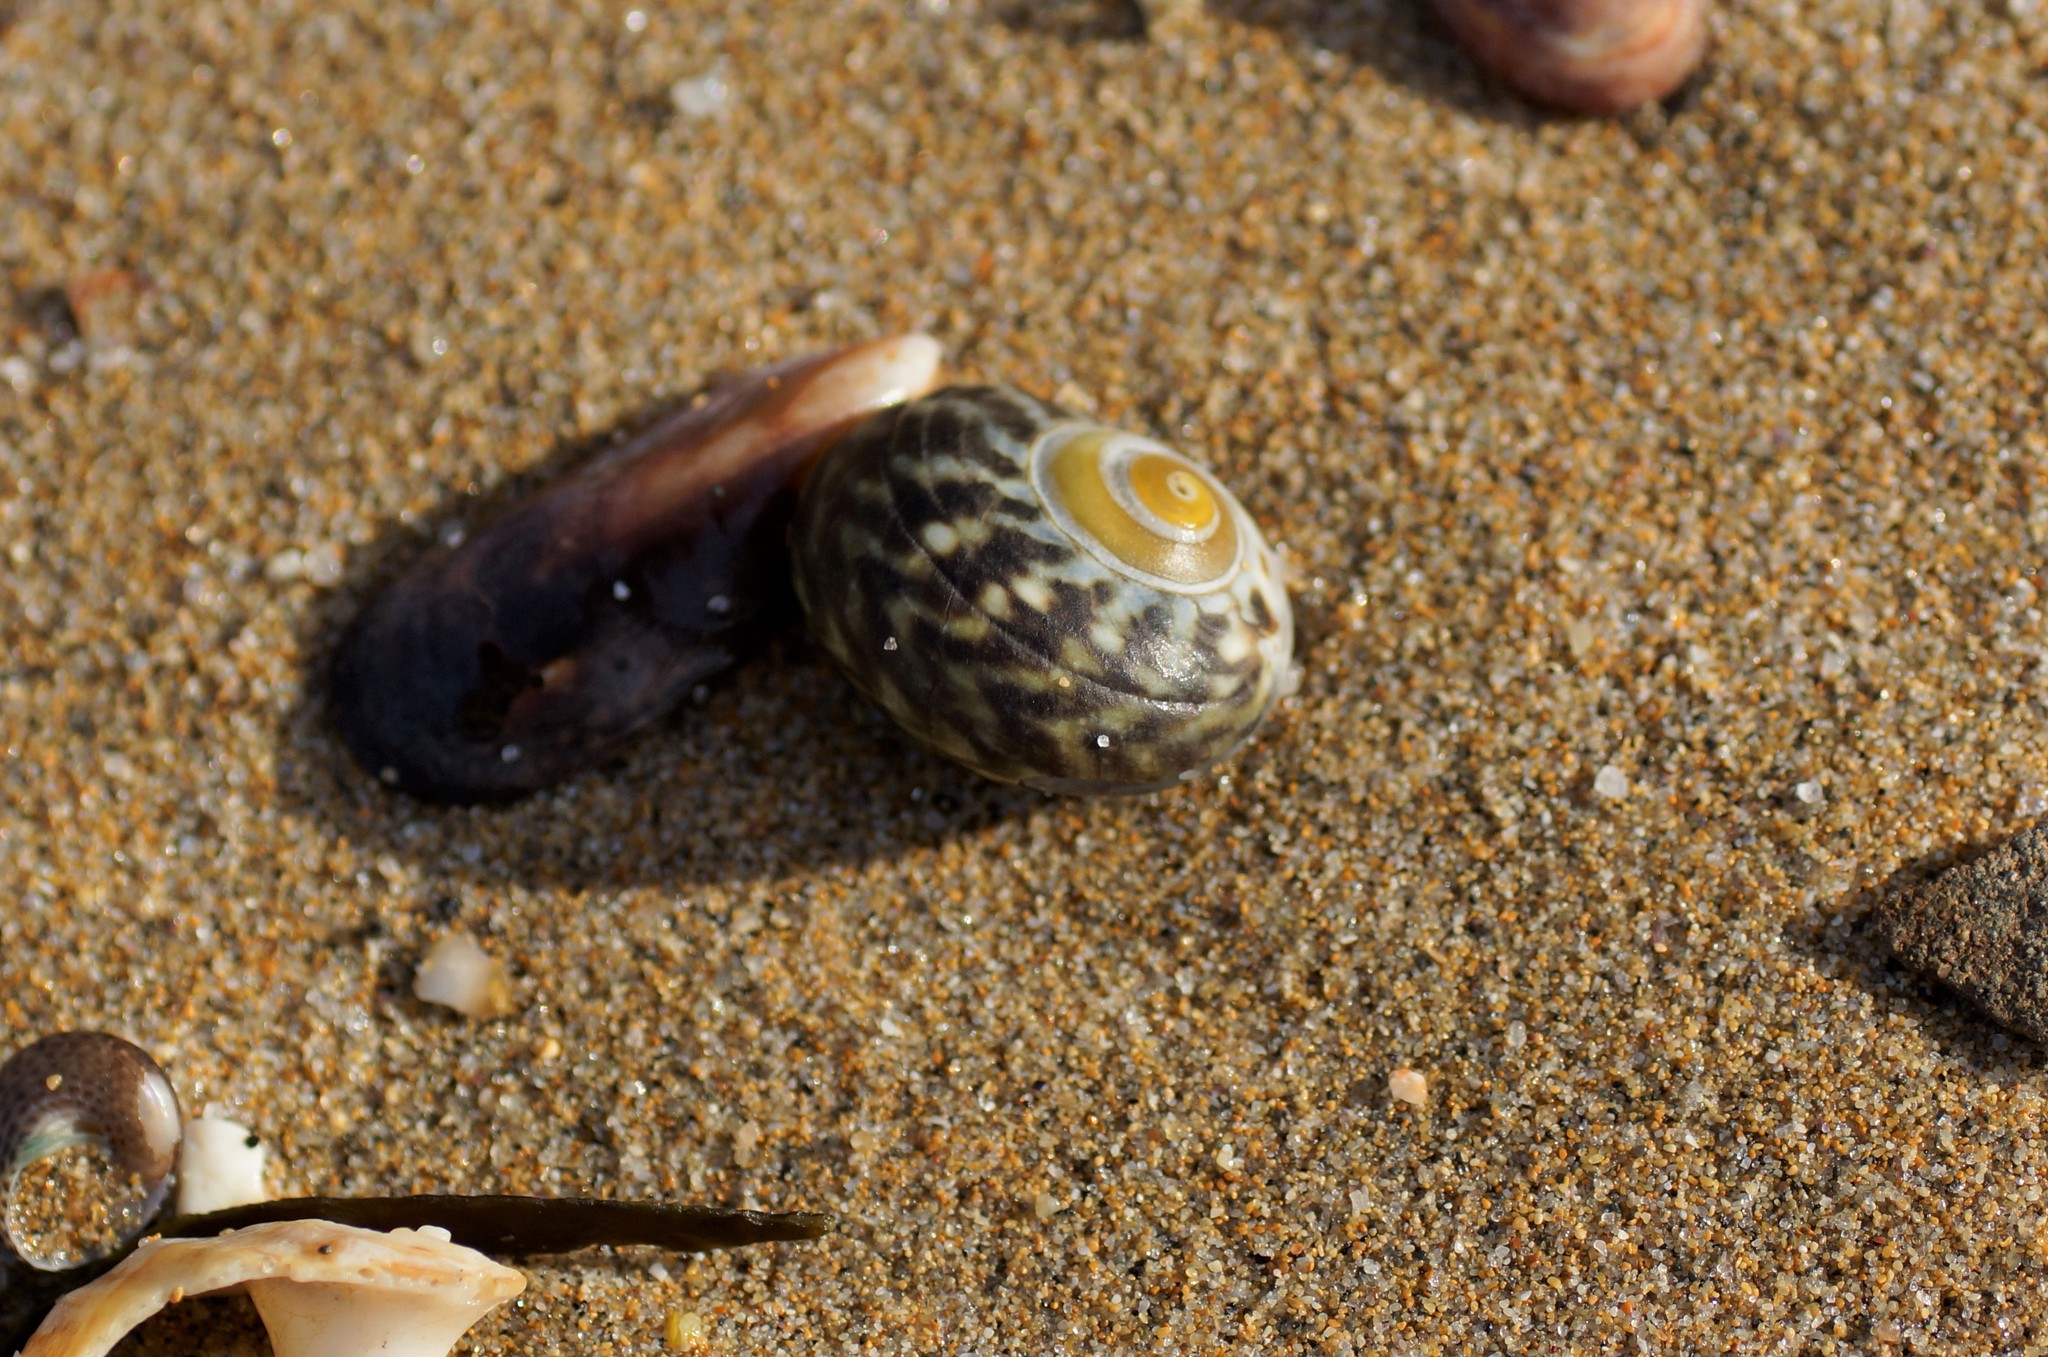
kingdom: Animalia
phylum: Mollusca
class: Gastropoda
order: Trochida
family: Turbinidae
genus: Lunella
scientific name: Lunella undulata
